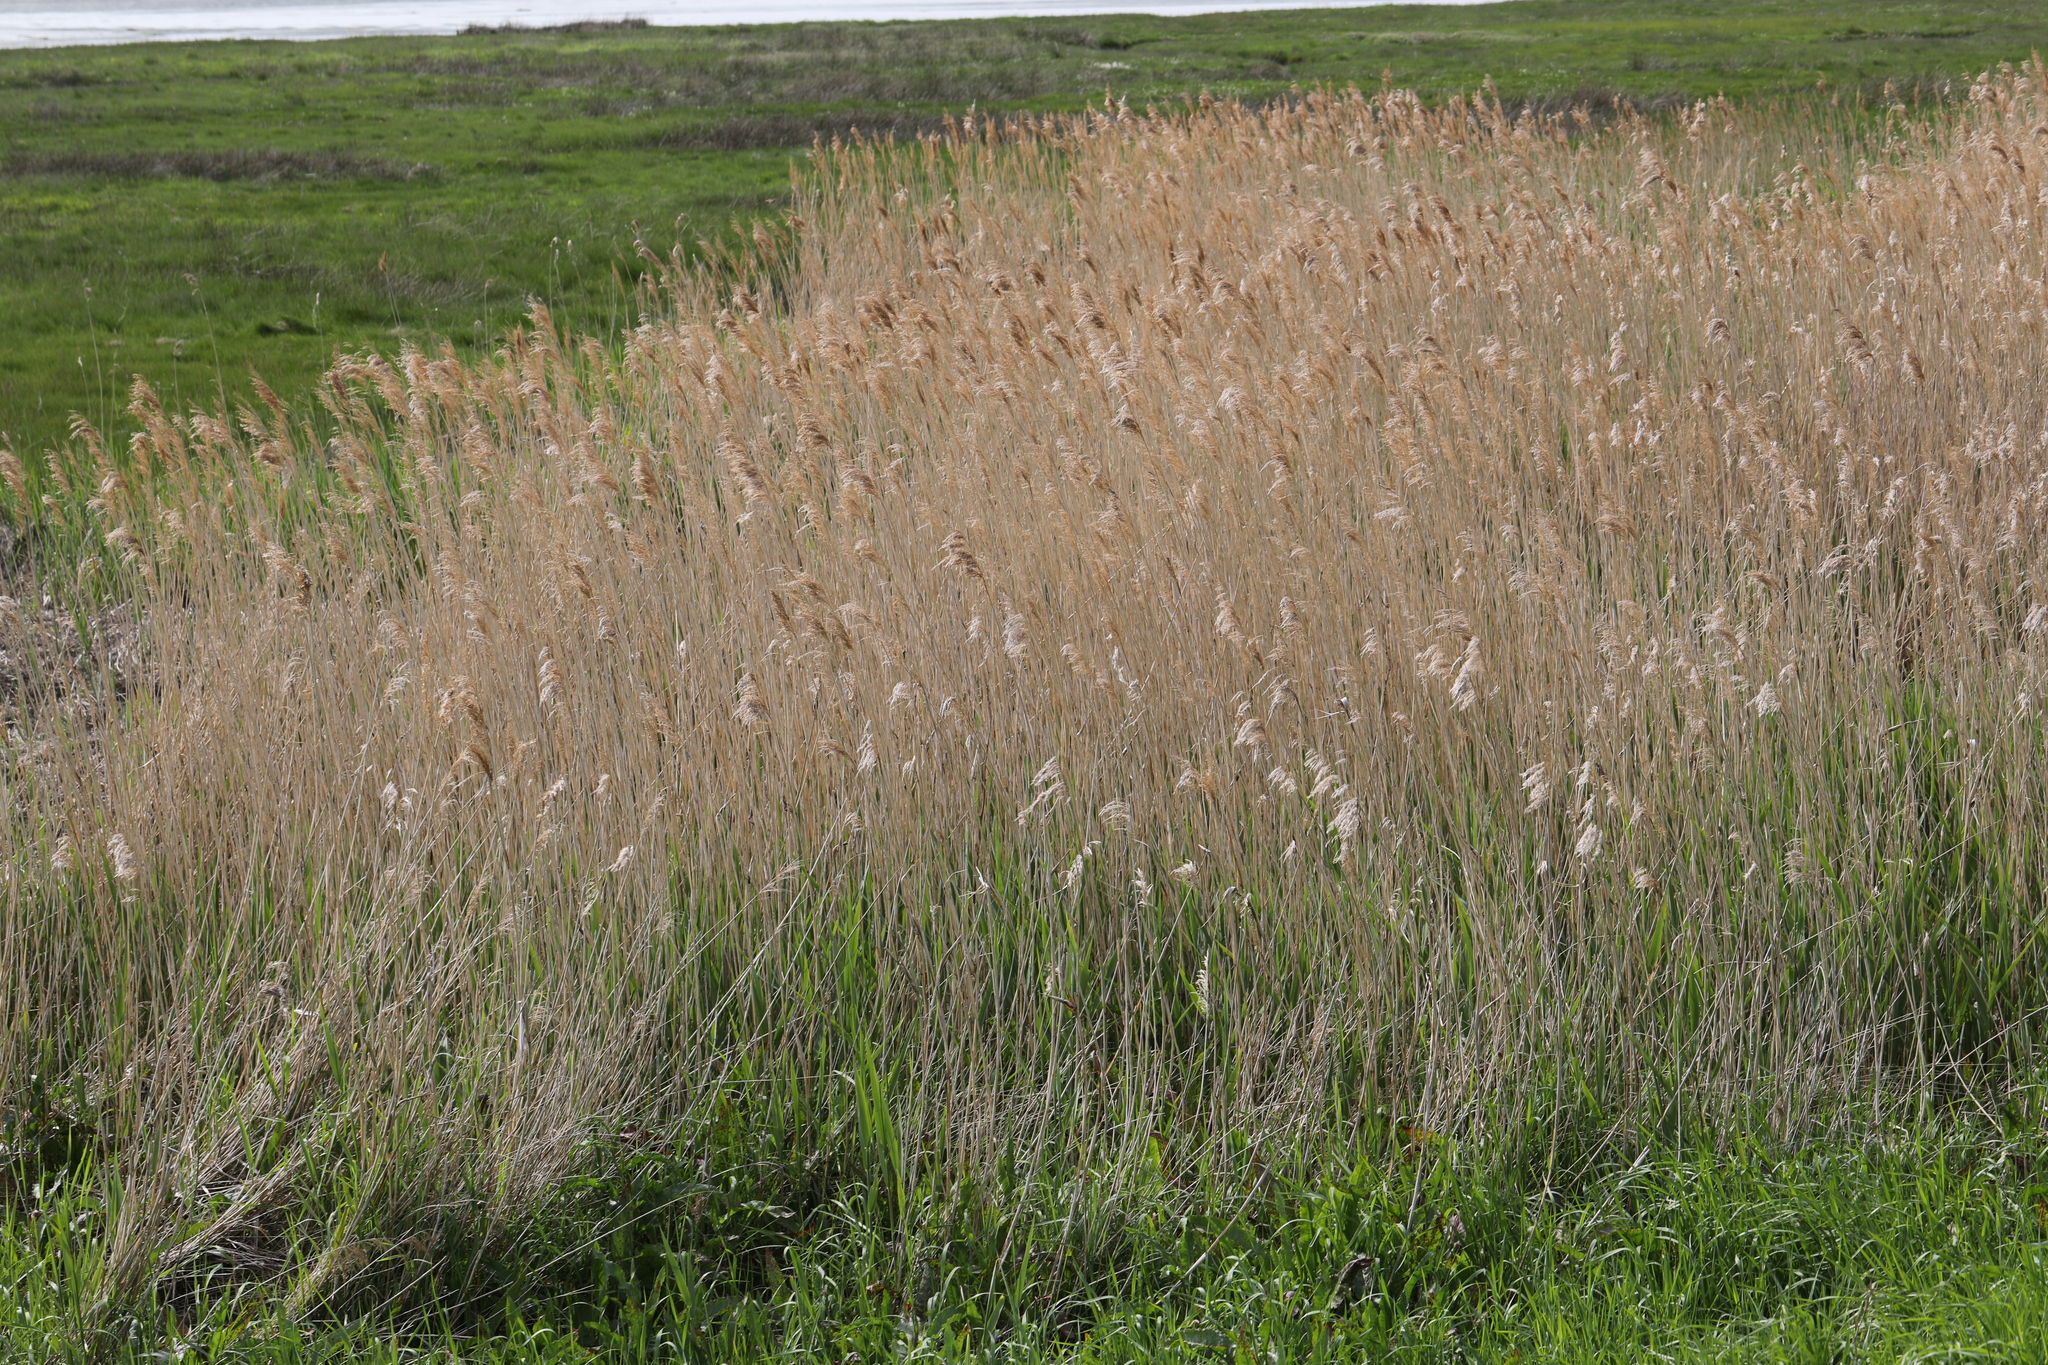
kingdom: Plantae
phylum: Tracheophyta
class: Liliopsida
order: Poales
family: Poaceae
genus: Phragmites
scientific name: Phragmites australis
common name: Common reed
